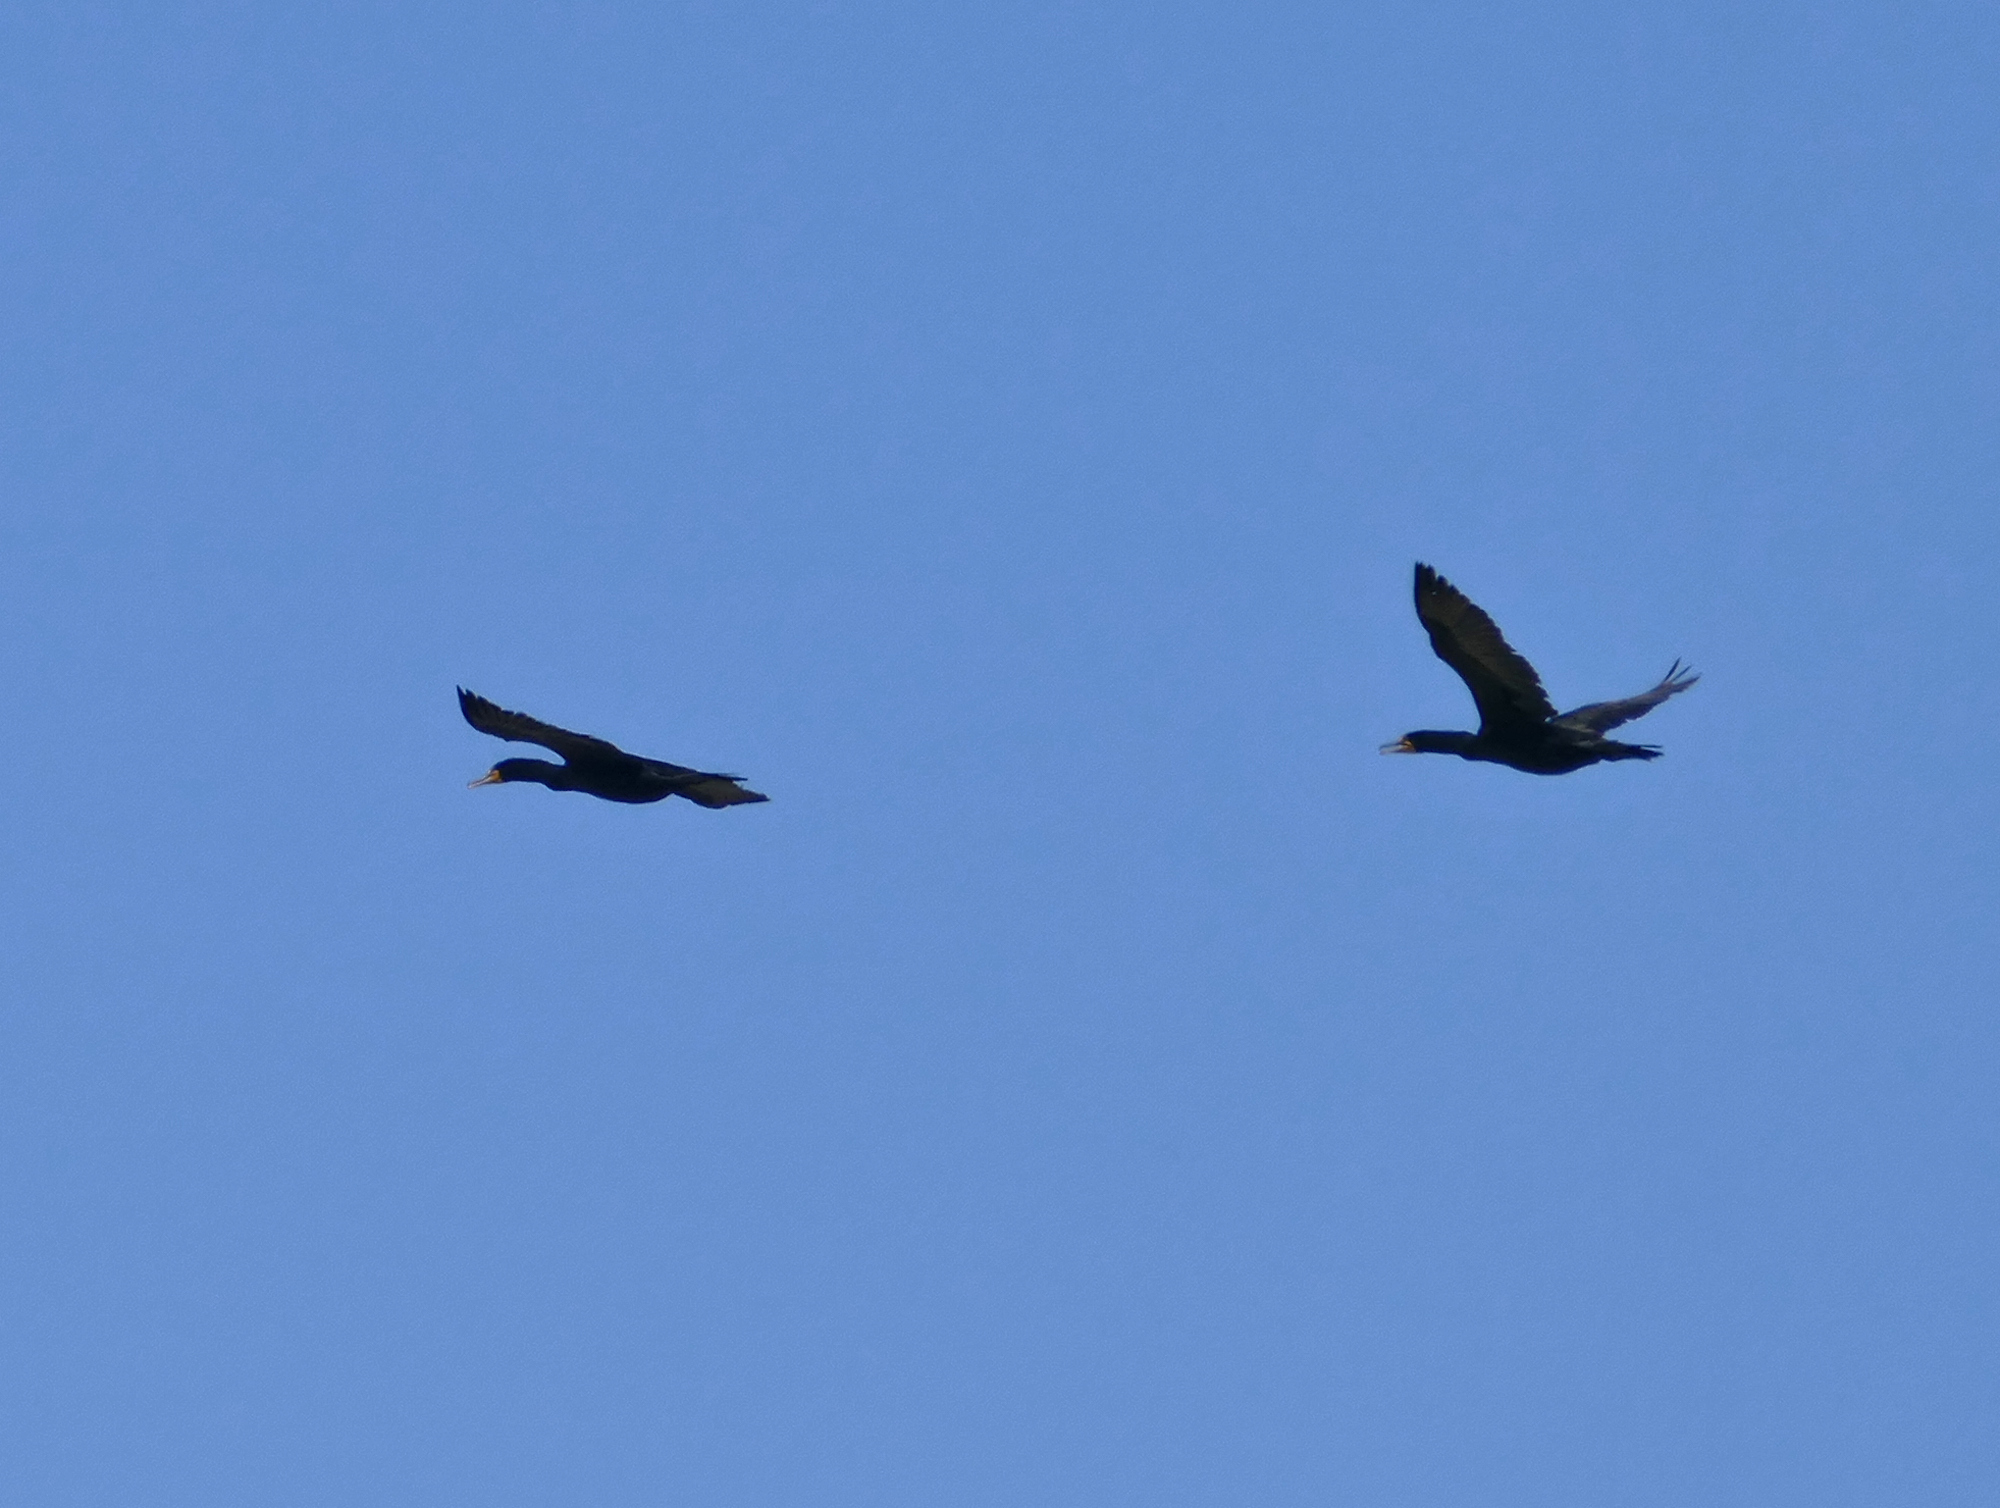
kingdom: Animalia
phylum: Chordata
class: Aves
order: Suliformes
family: Phalacrocoracidae
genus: Phalacrocorax
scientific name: Phalacrocorax auritus
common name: Double-crested cormorant
